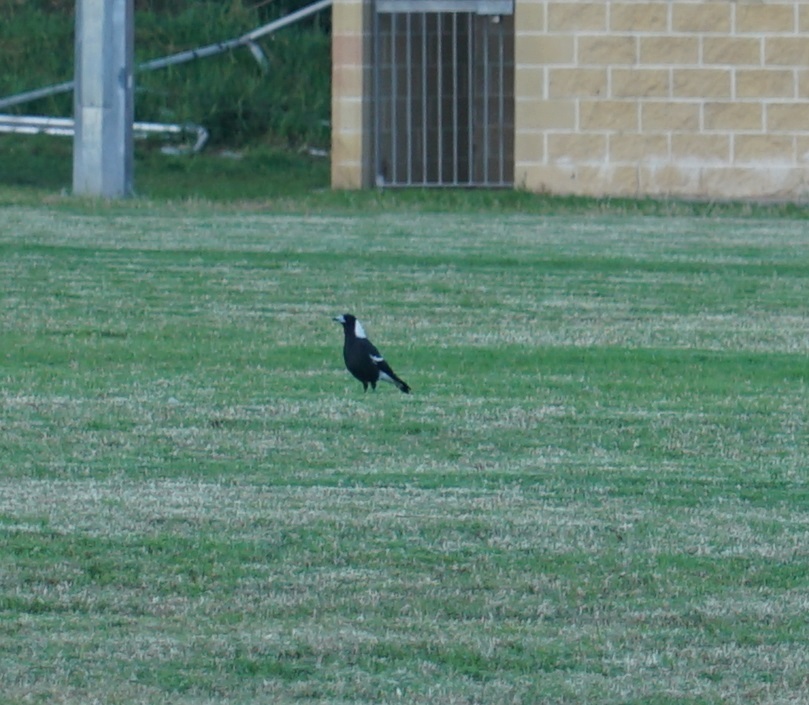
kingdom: Animalia
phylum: Chordata
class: Aves
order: Passeriformes
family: Cracticidae
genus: Gymnorhina
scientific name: Gymnorhina tibicen
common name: Australian magpie
